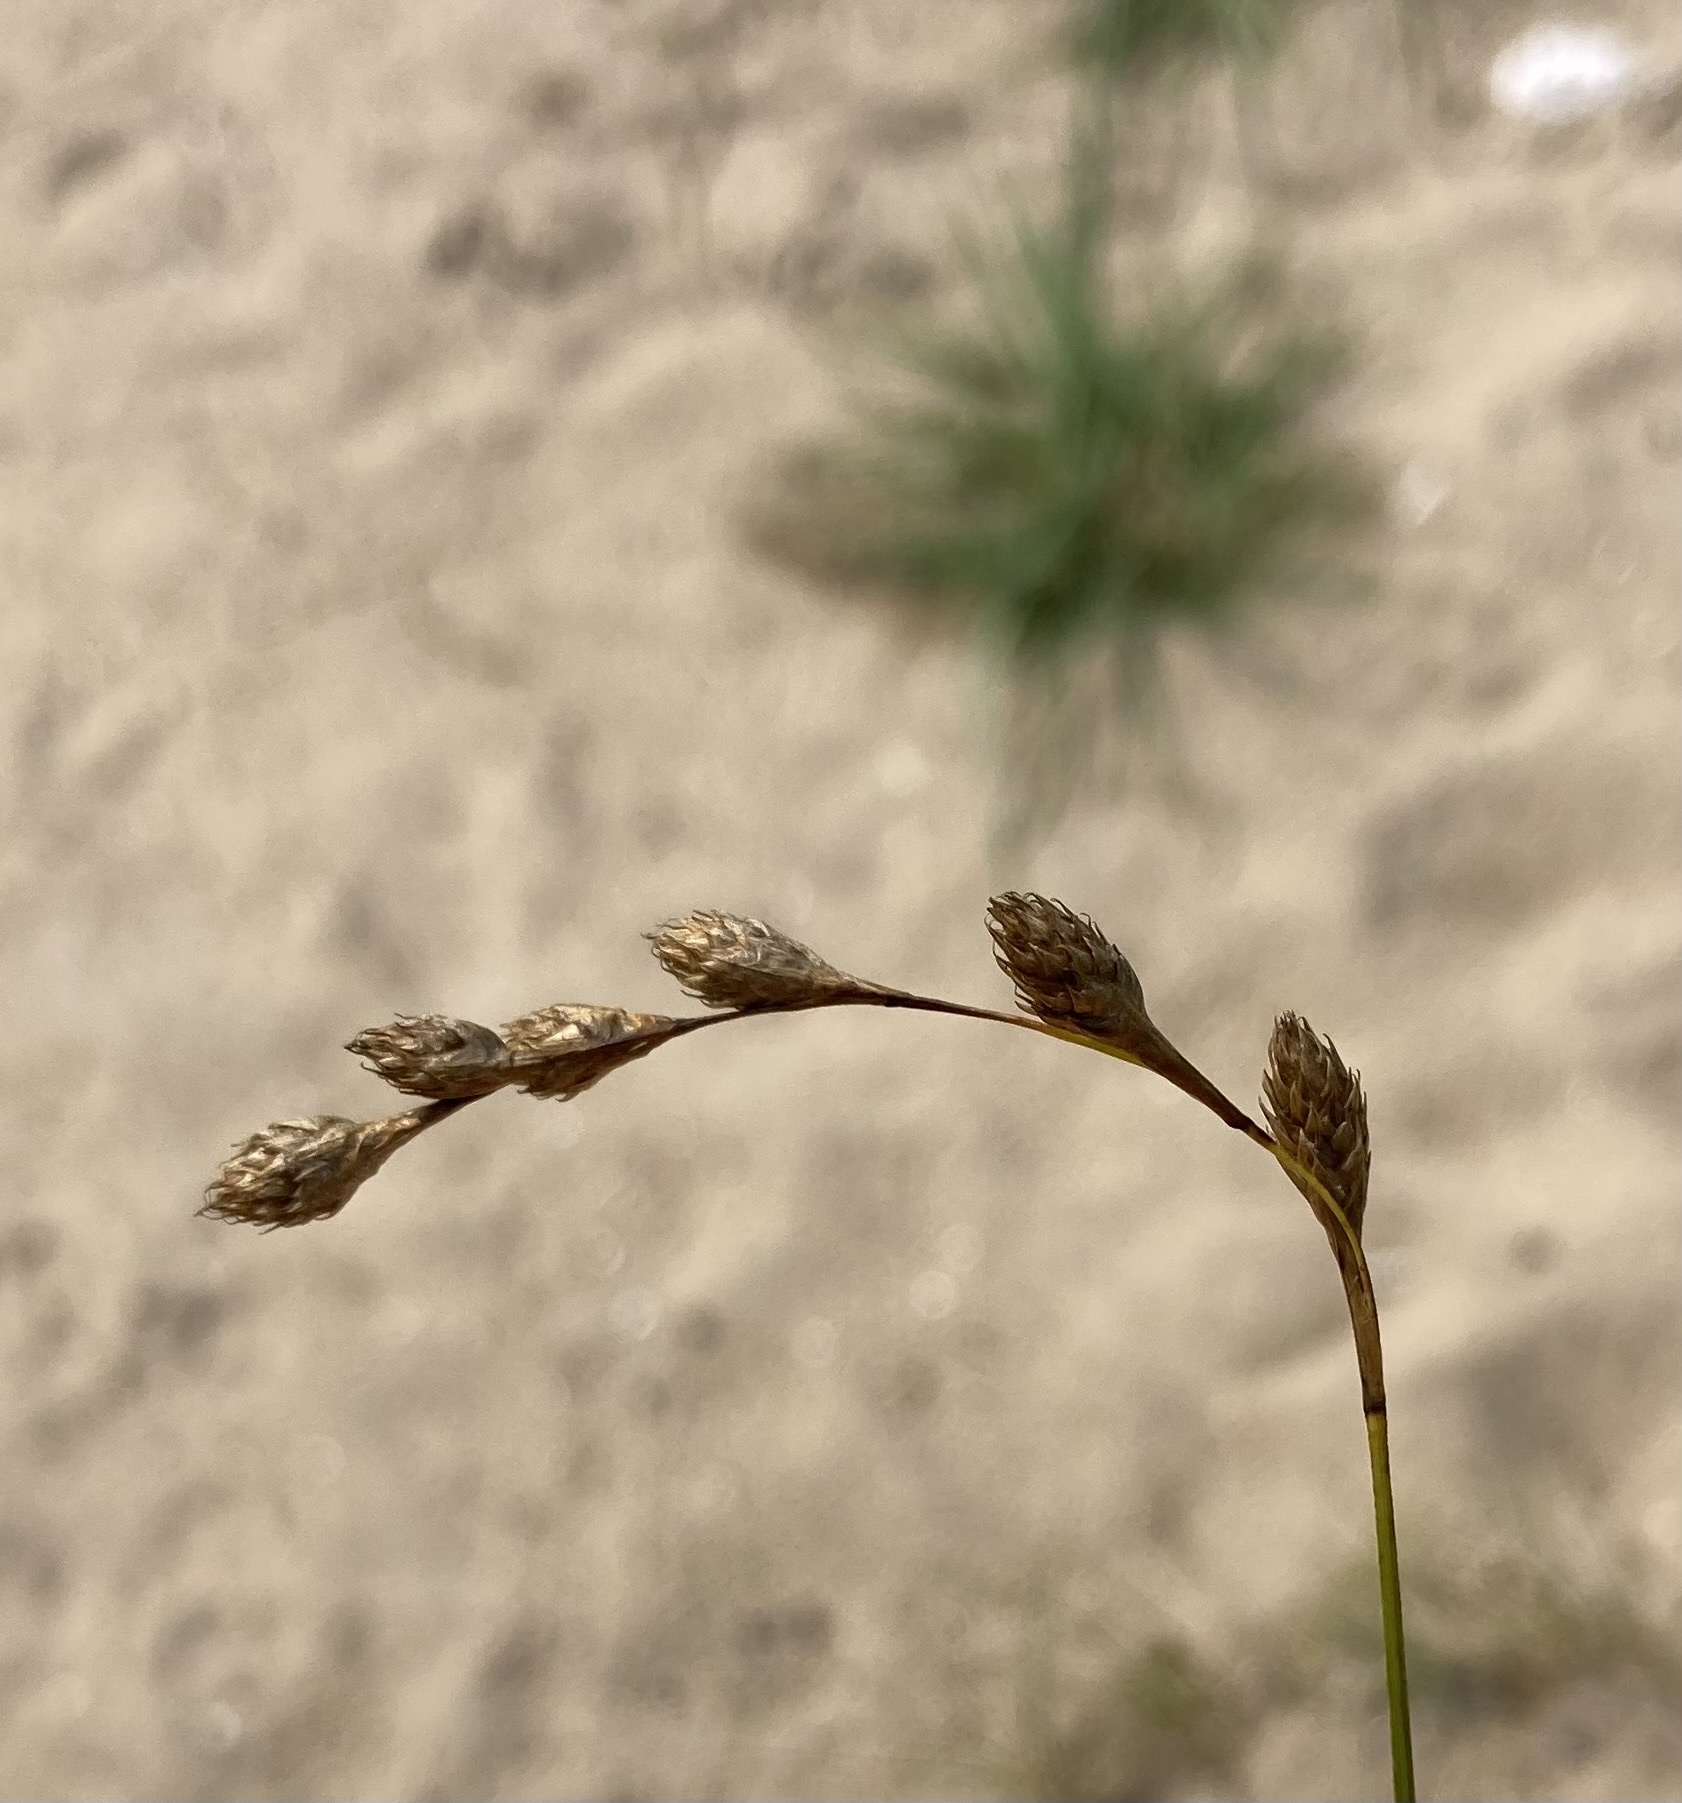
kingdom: Plantae
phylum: Tracheophyta
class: Liliopsida
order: Poales
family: Cyperaceae
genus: Carex
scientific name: Carex silicea
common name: Beach sedge
